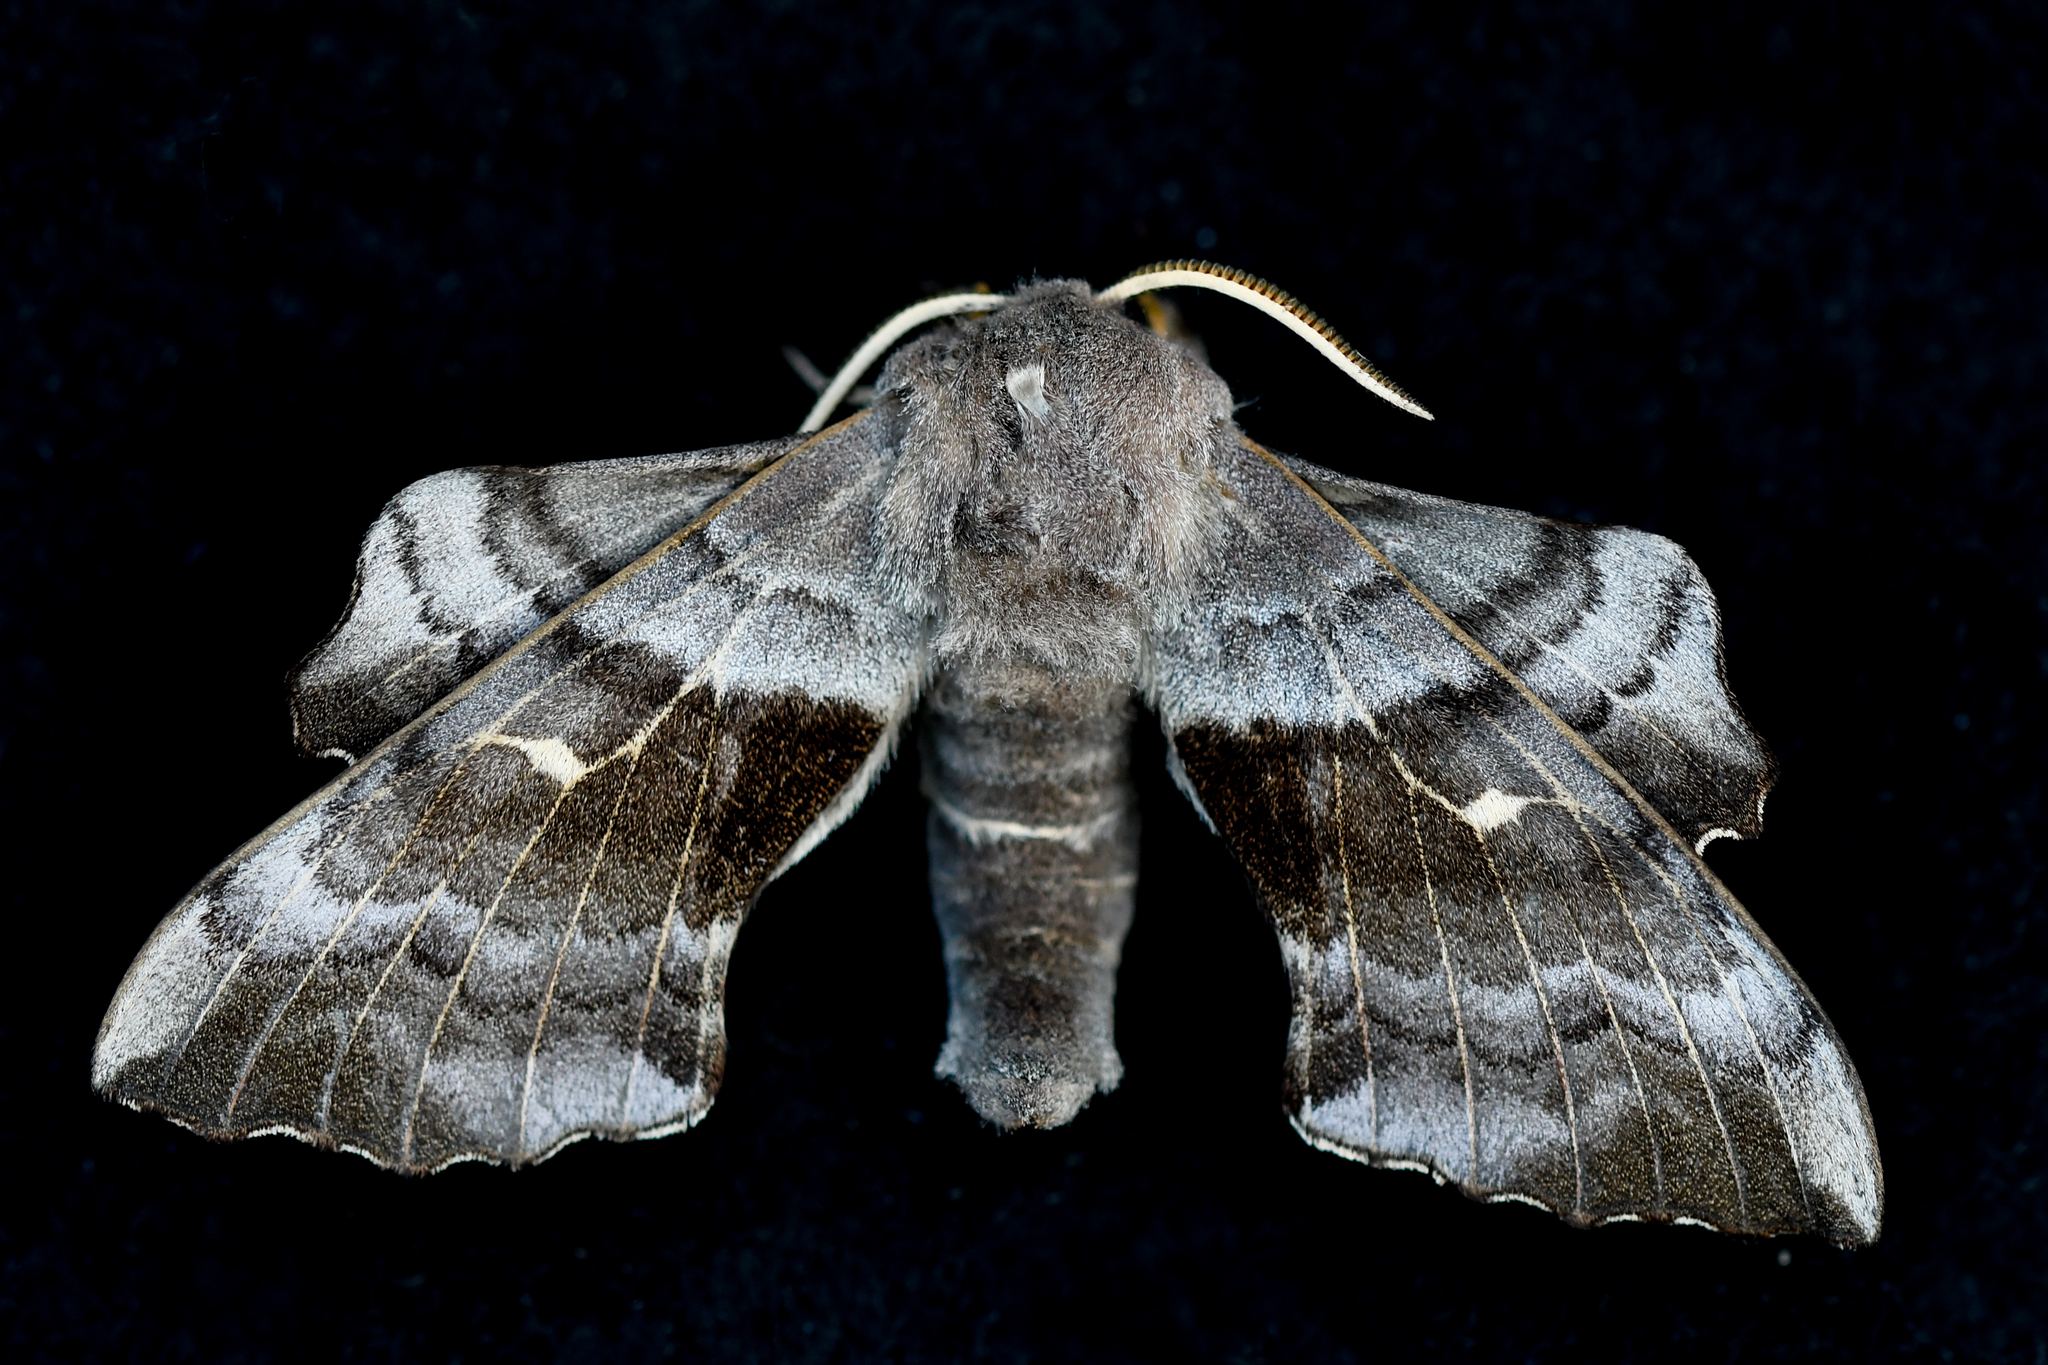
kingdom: Animalia
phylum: Arthropoda
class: Insecta
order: Lepidoptera
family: Sphingidae
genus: Laothoe
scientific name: Laothoe populi
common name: Poplar hawk-moth
